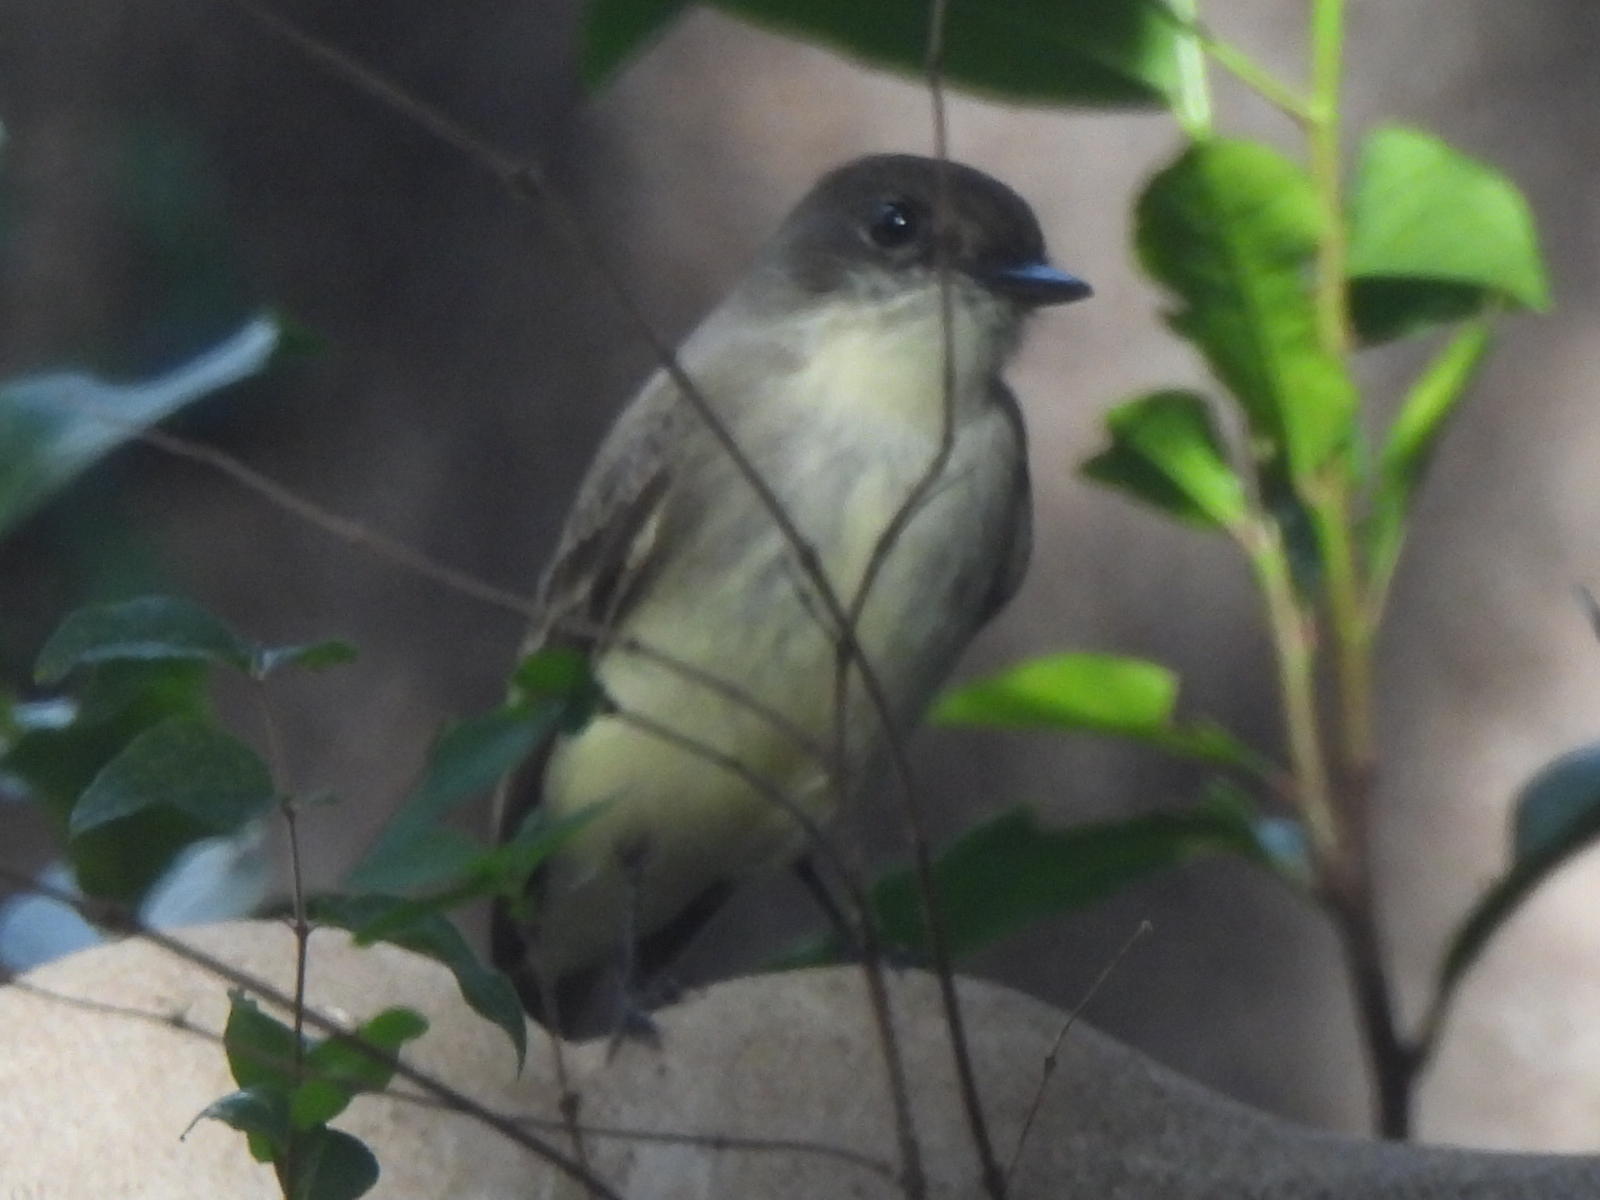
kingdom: Animalia
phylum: Chordata
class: Aves
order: Passeriformes
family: Tyrannidae
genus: Sayornis
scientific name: Sayornis phoebe
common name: Eastern phoebe
